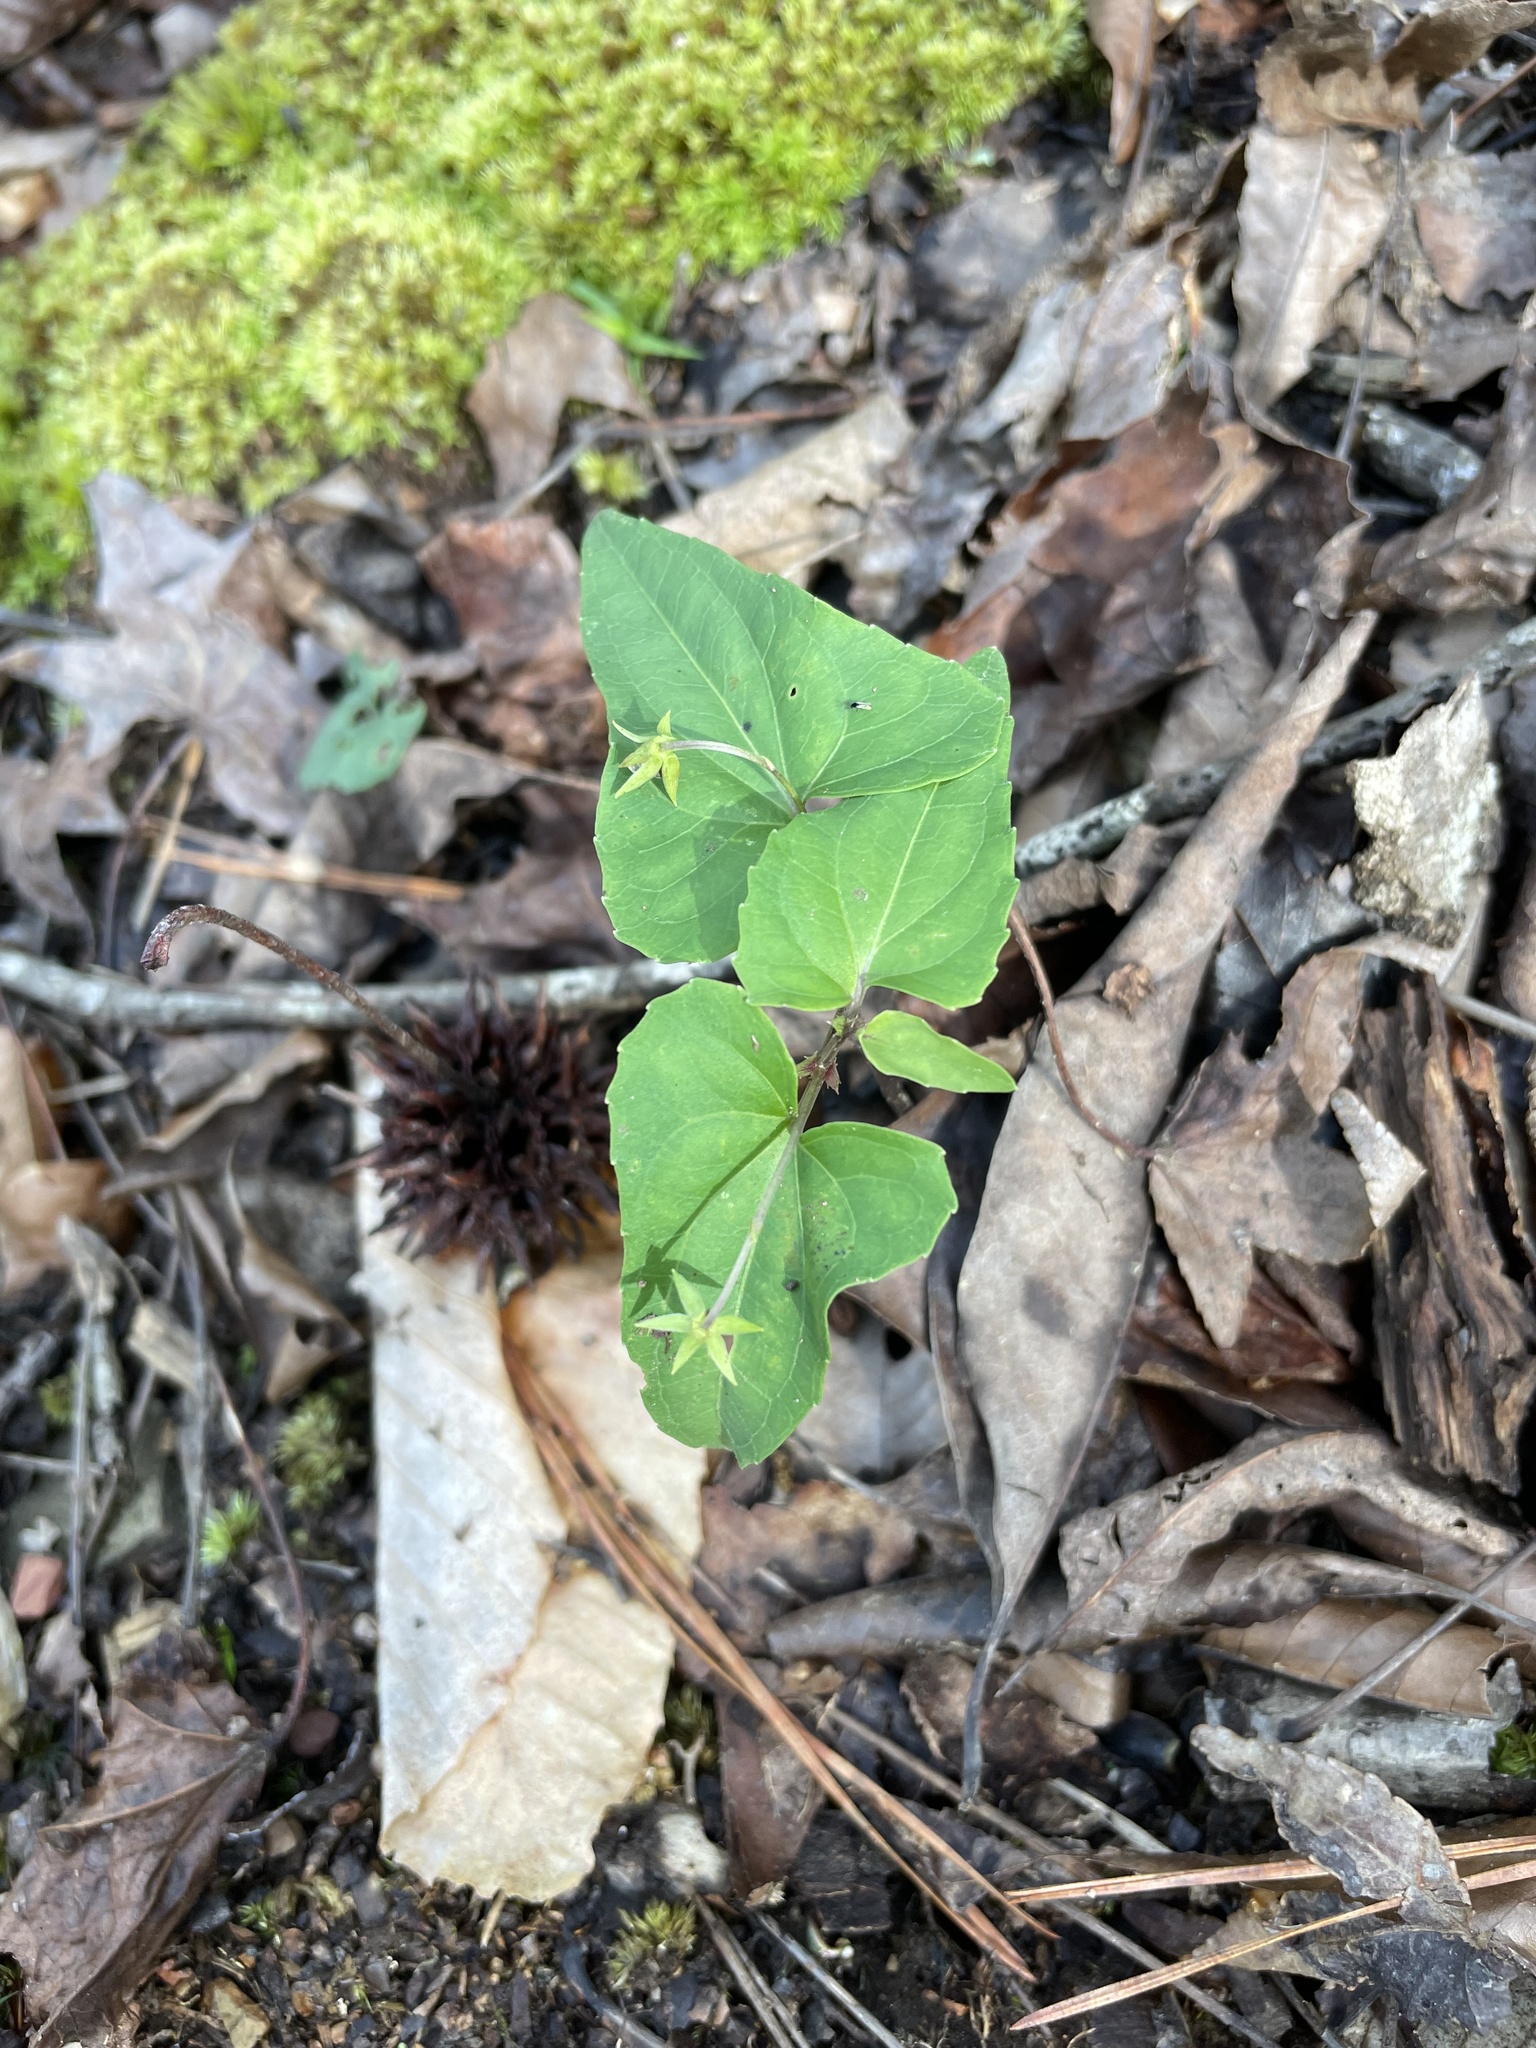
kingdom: Plantae
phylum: Tracheophyta
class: Magnoliopsida
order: Malpighiales
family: Violaceae
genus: Viola
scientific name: Viola hastata
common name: Spear-leaf violet
